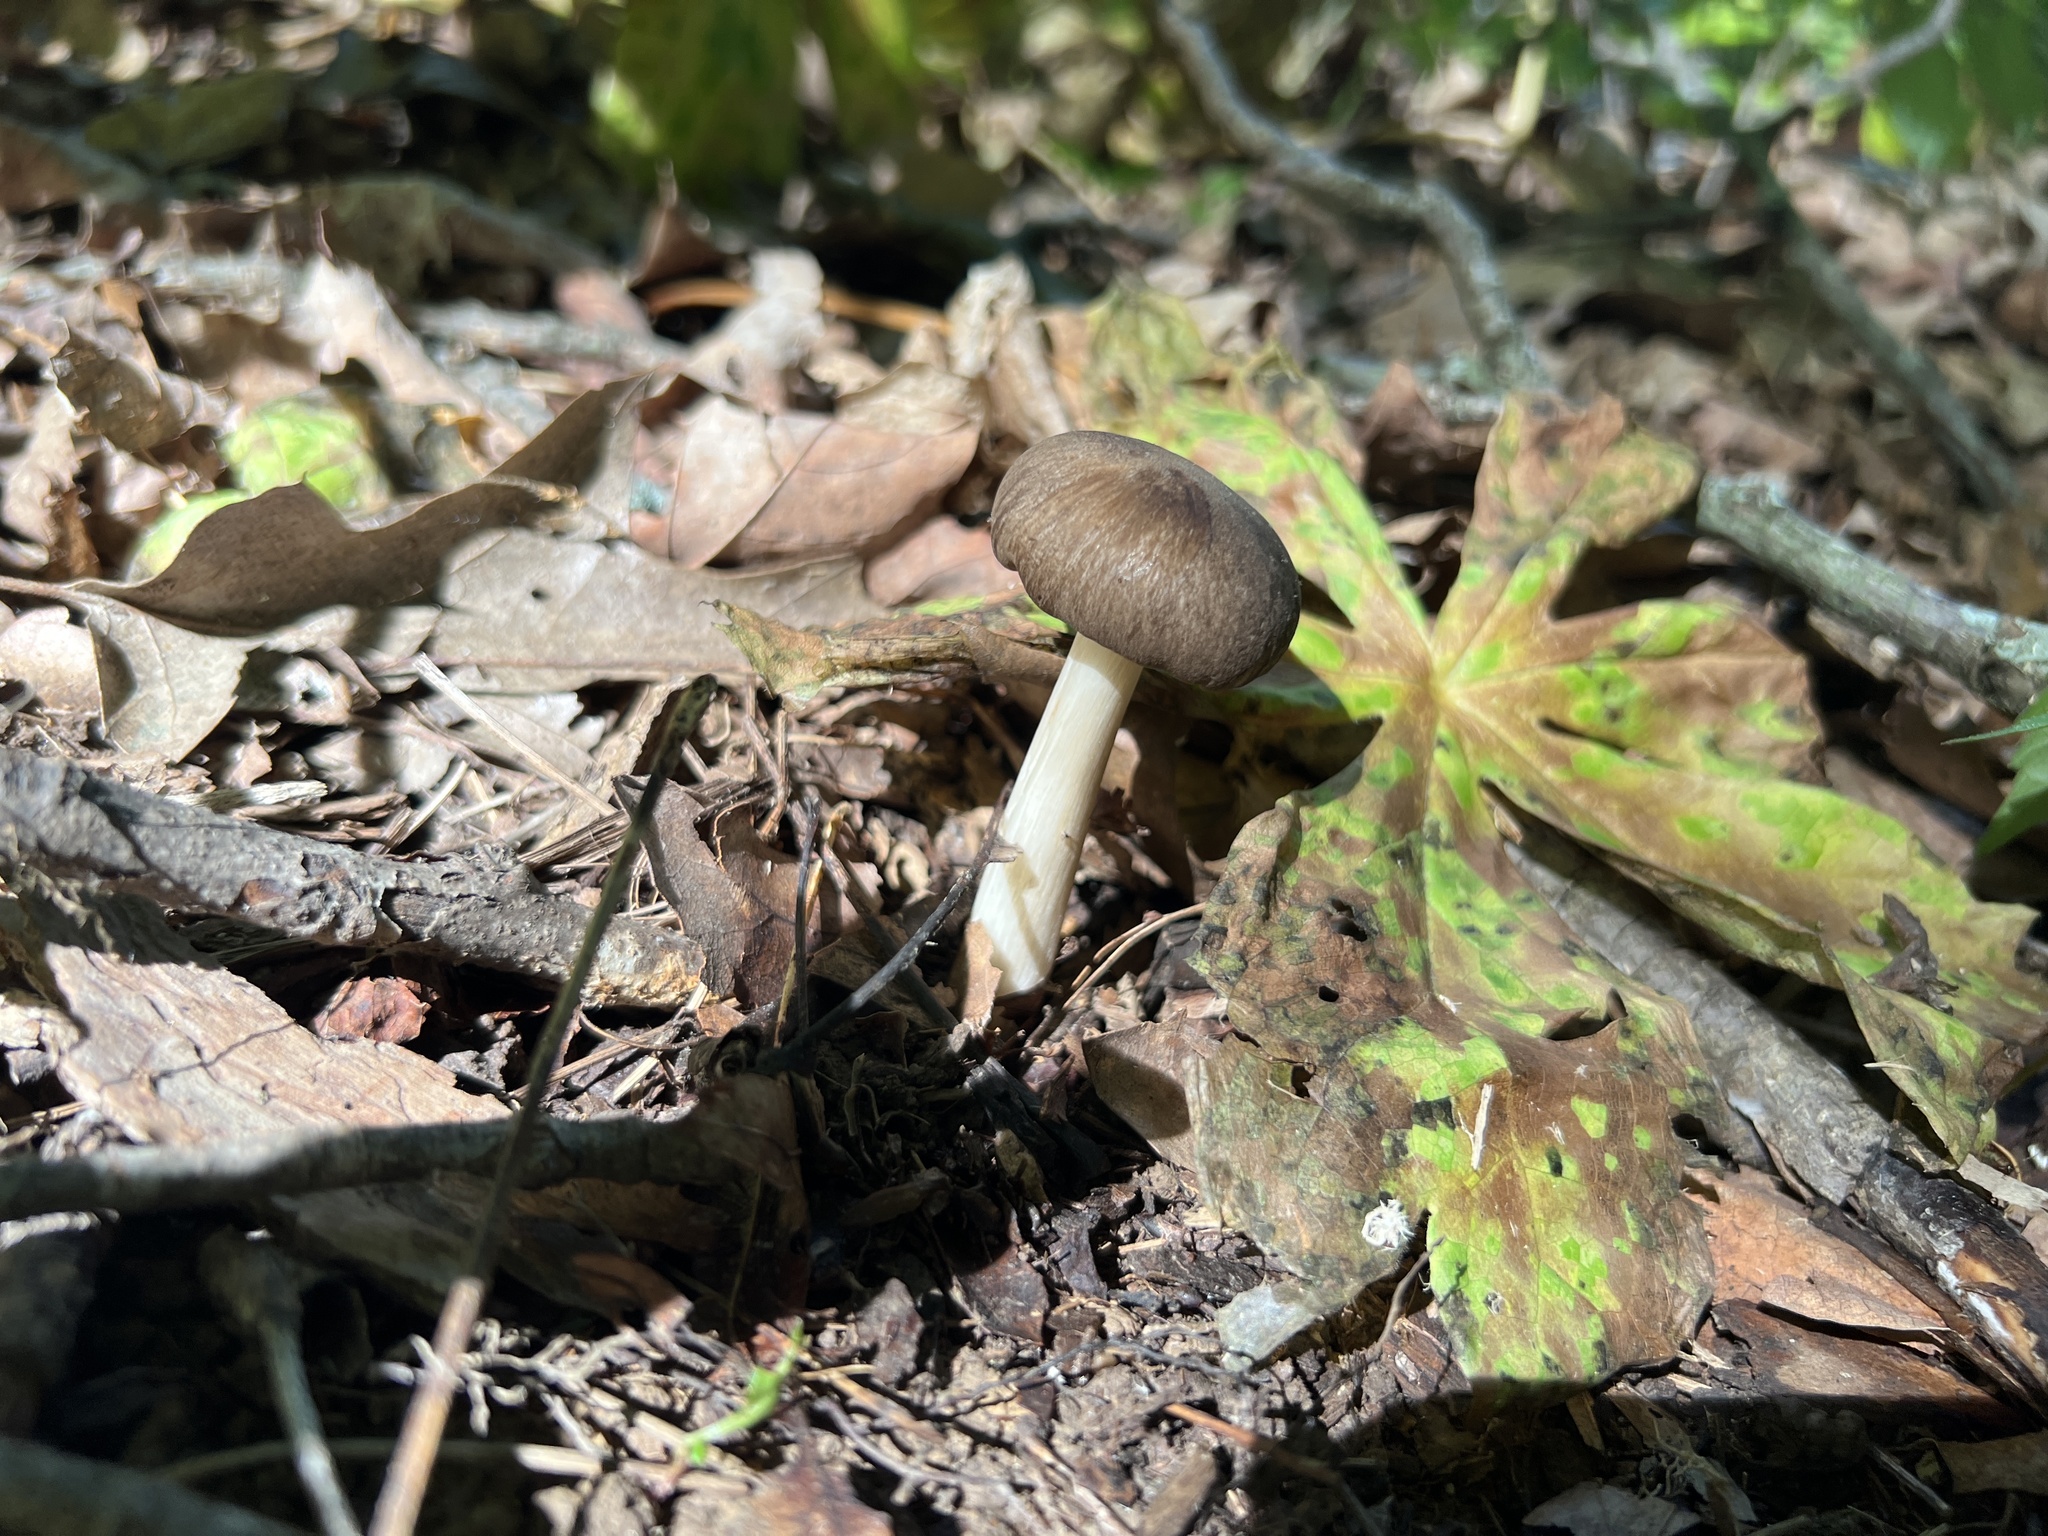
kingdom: Fungi
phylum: Basidiomycota
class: Agaricomycetes
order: Agaricales
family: Tricholomataceae
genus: Megacollybia
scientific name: Megacollybia rodmanii
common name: Eastern american platterful mushroom
